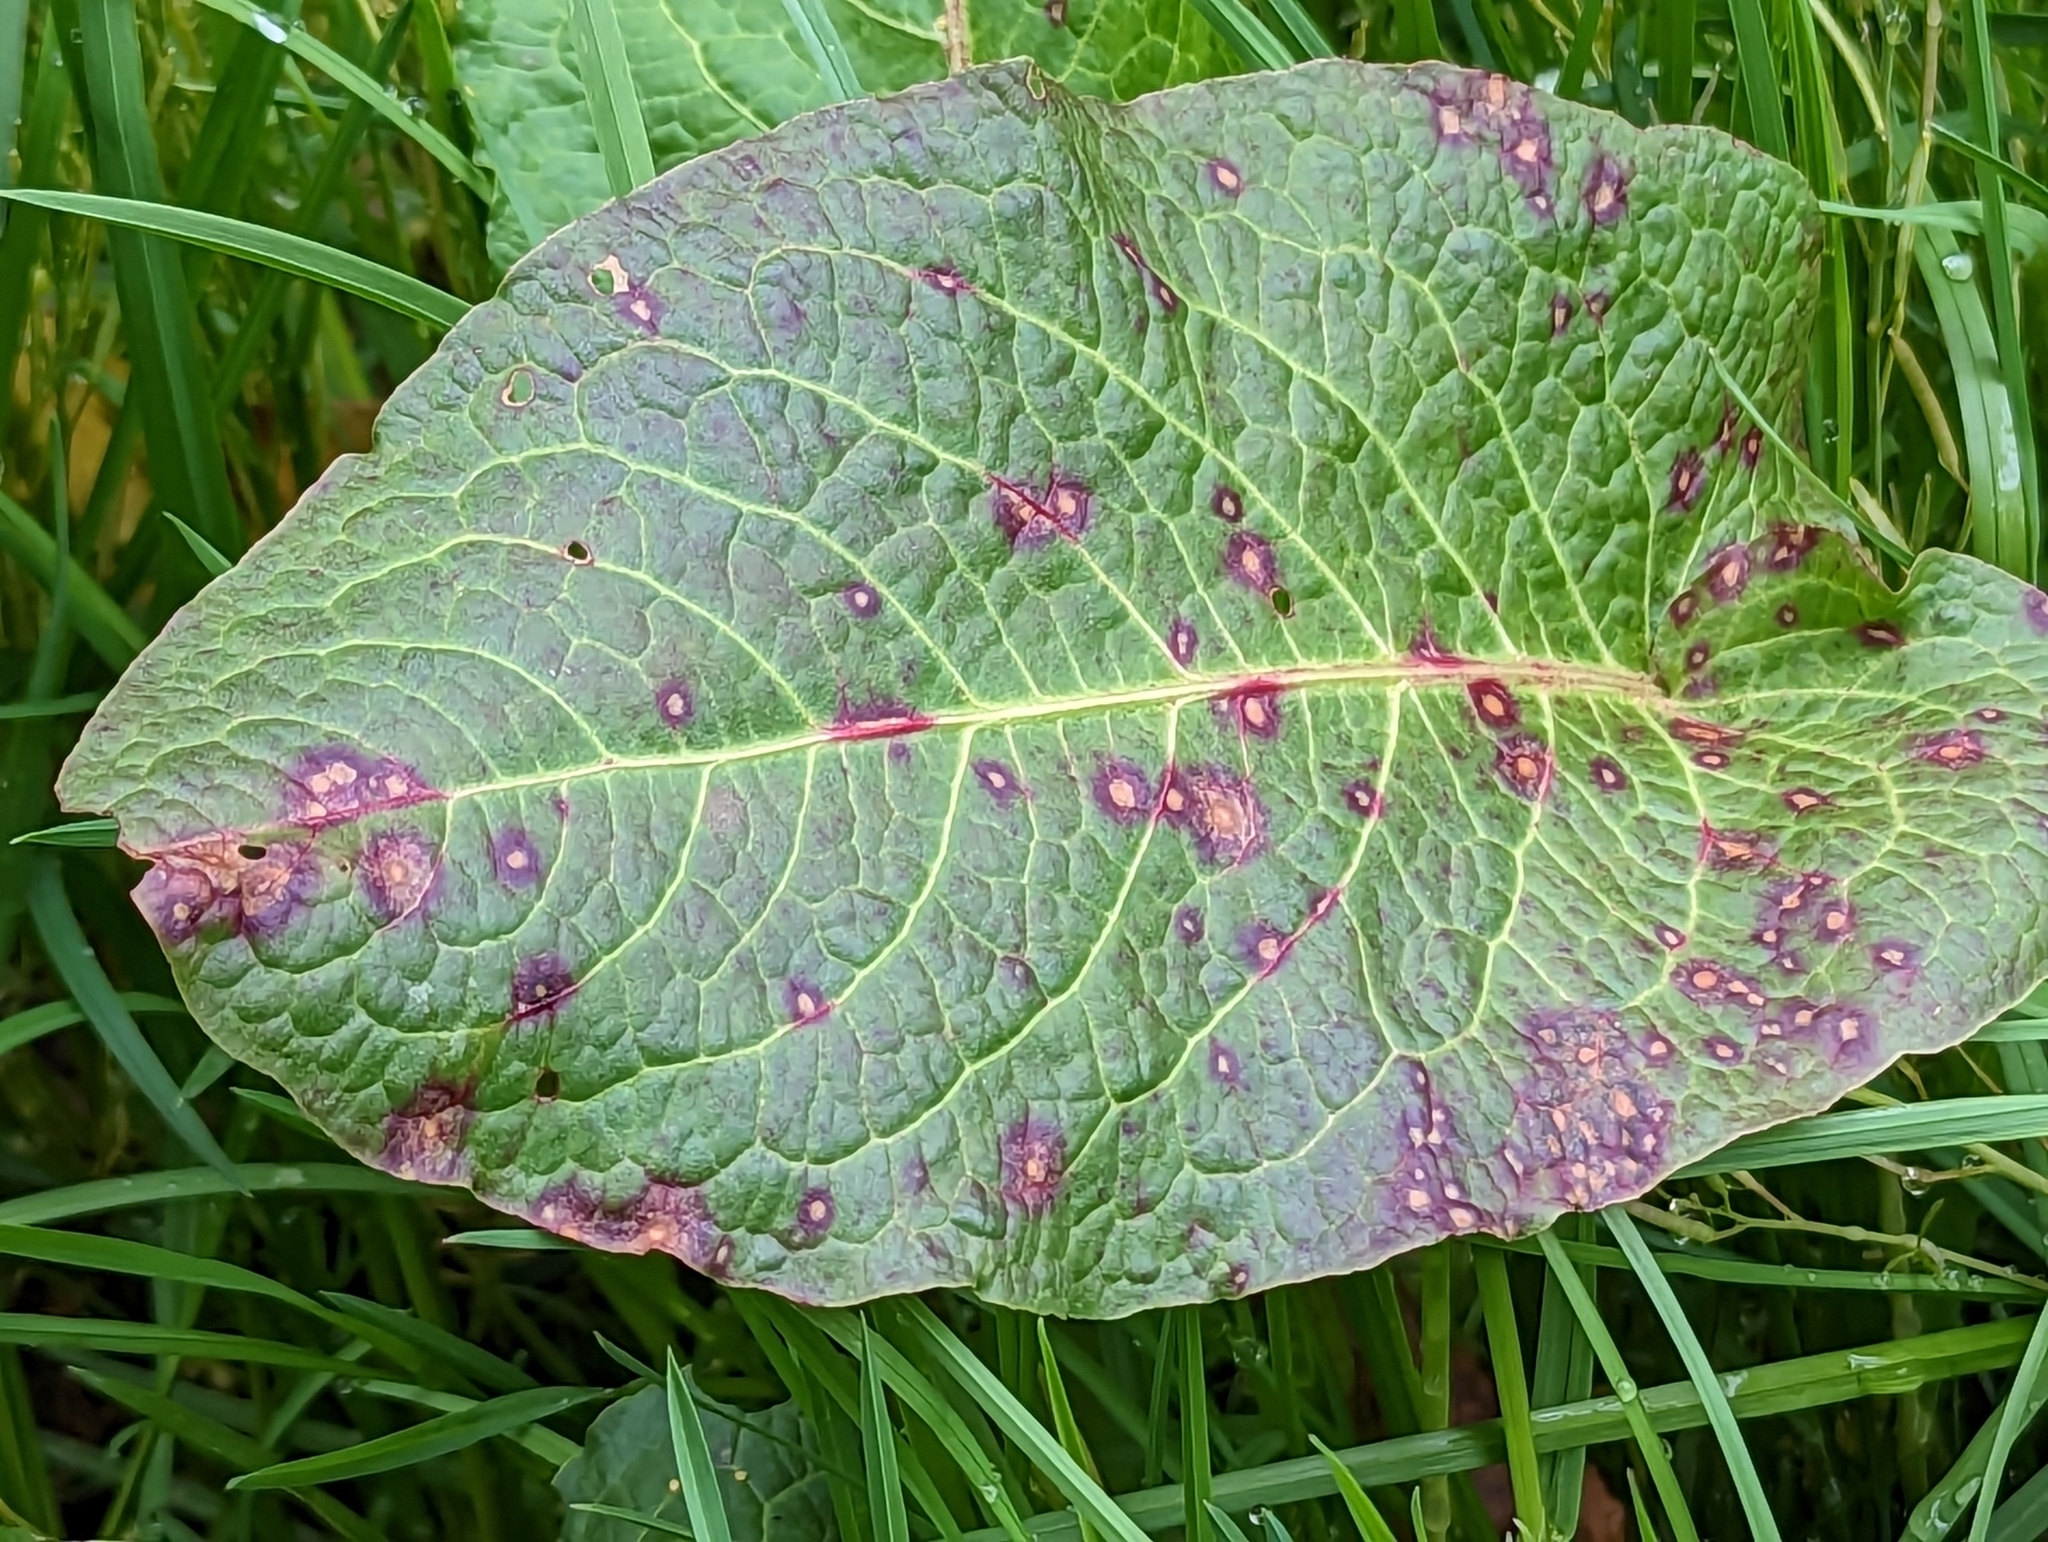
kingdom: Fungi
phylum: Ascomycota
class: Dothideomycetes
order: Mycosphaerellales
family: Mycosphaerellaceae
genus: Ramularia
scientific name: Ramularia rubella
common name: Red dock spot
